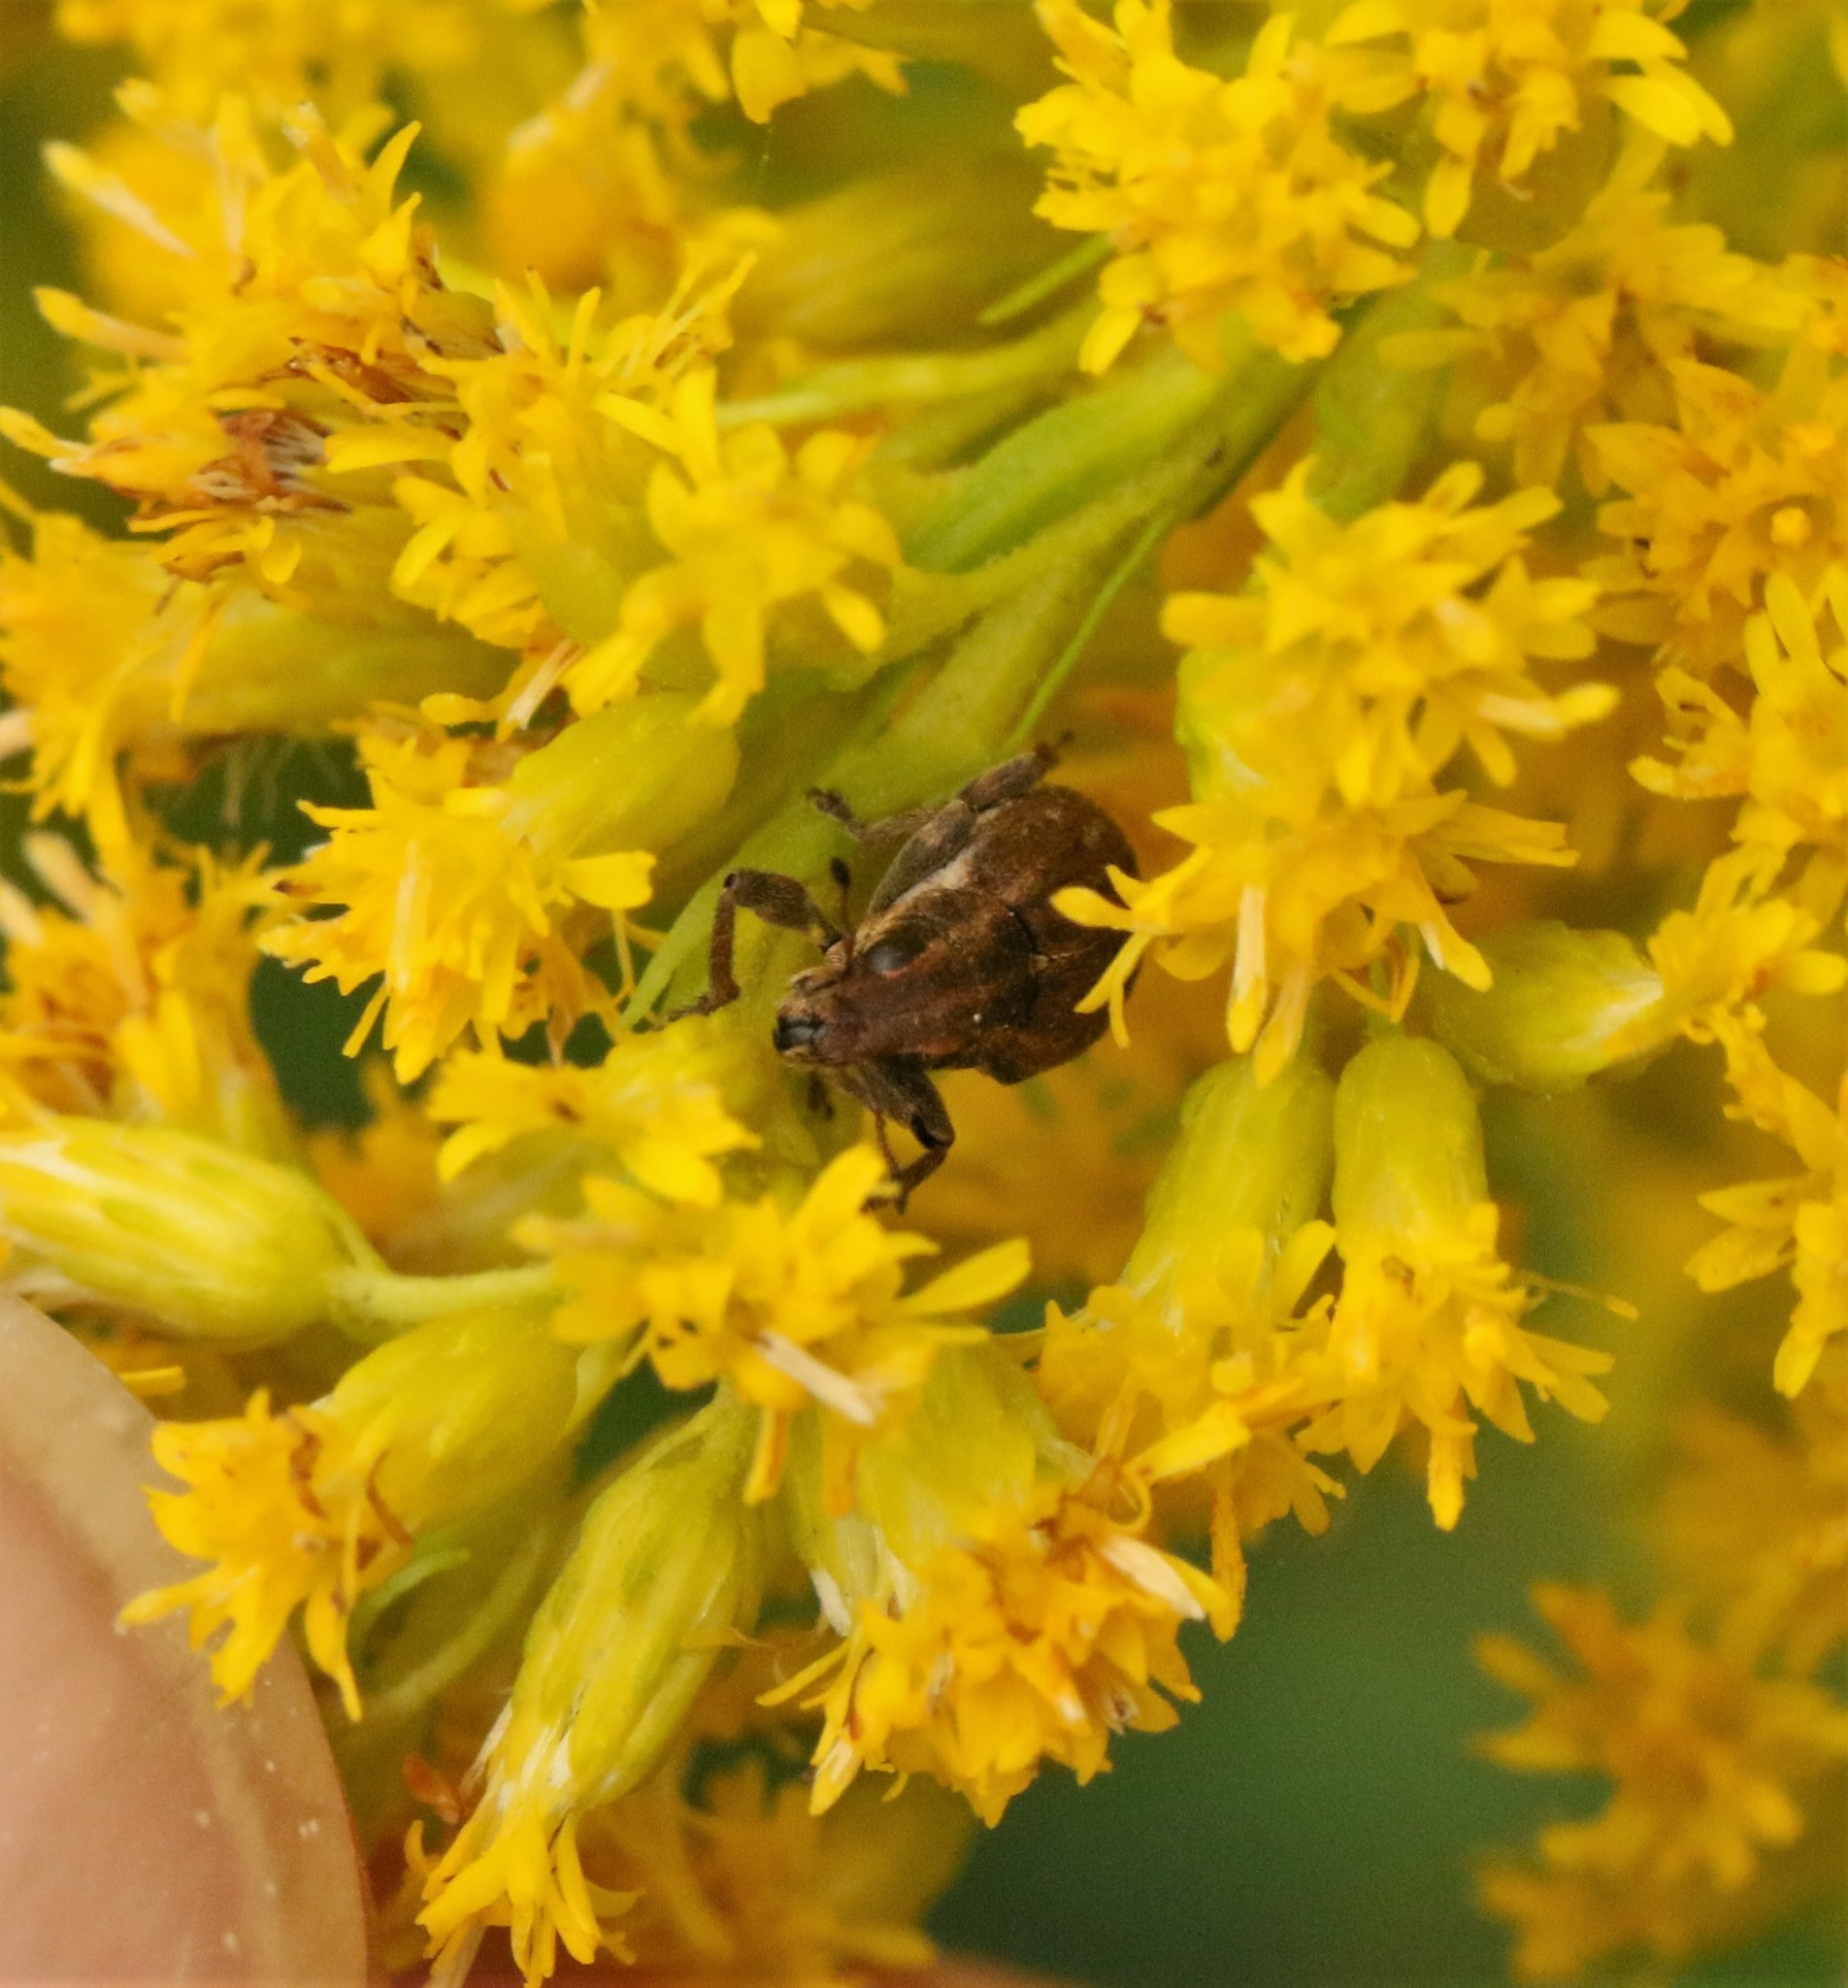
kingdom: Animalia
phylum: Arthropoda
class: Insecta
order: Coleoptera
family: Curculionidae
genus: Sitona
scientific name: Sitona obsoletus
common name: Weevil
